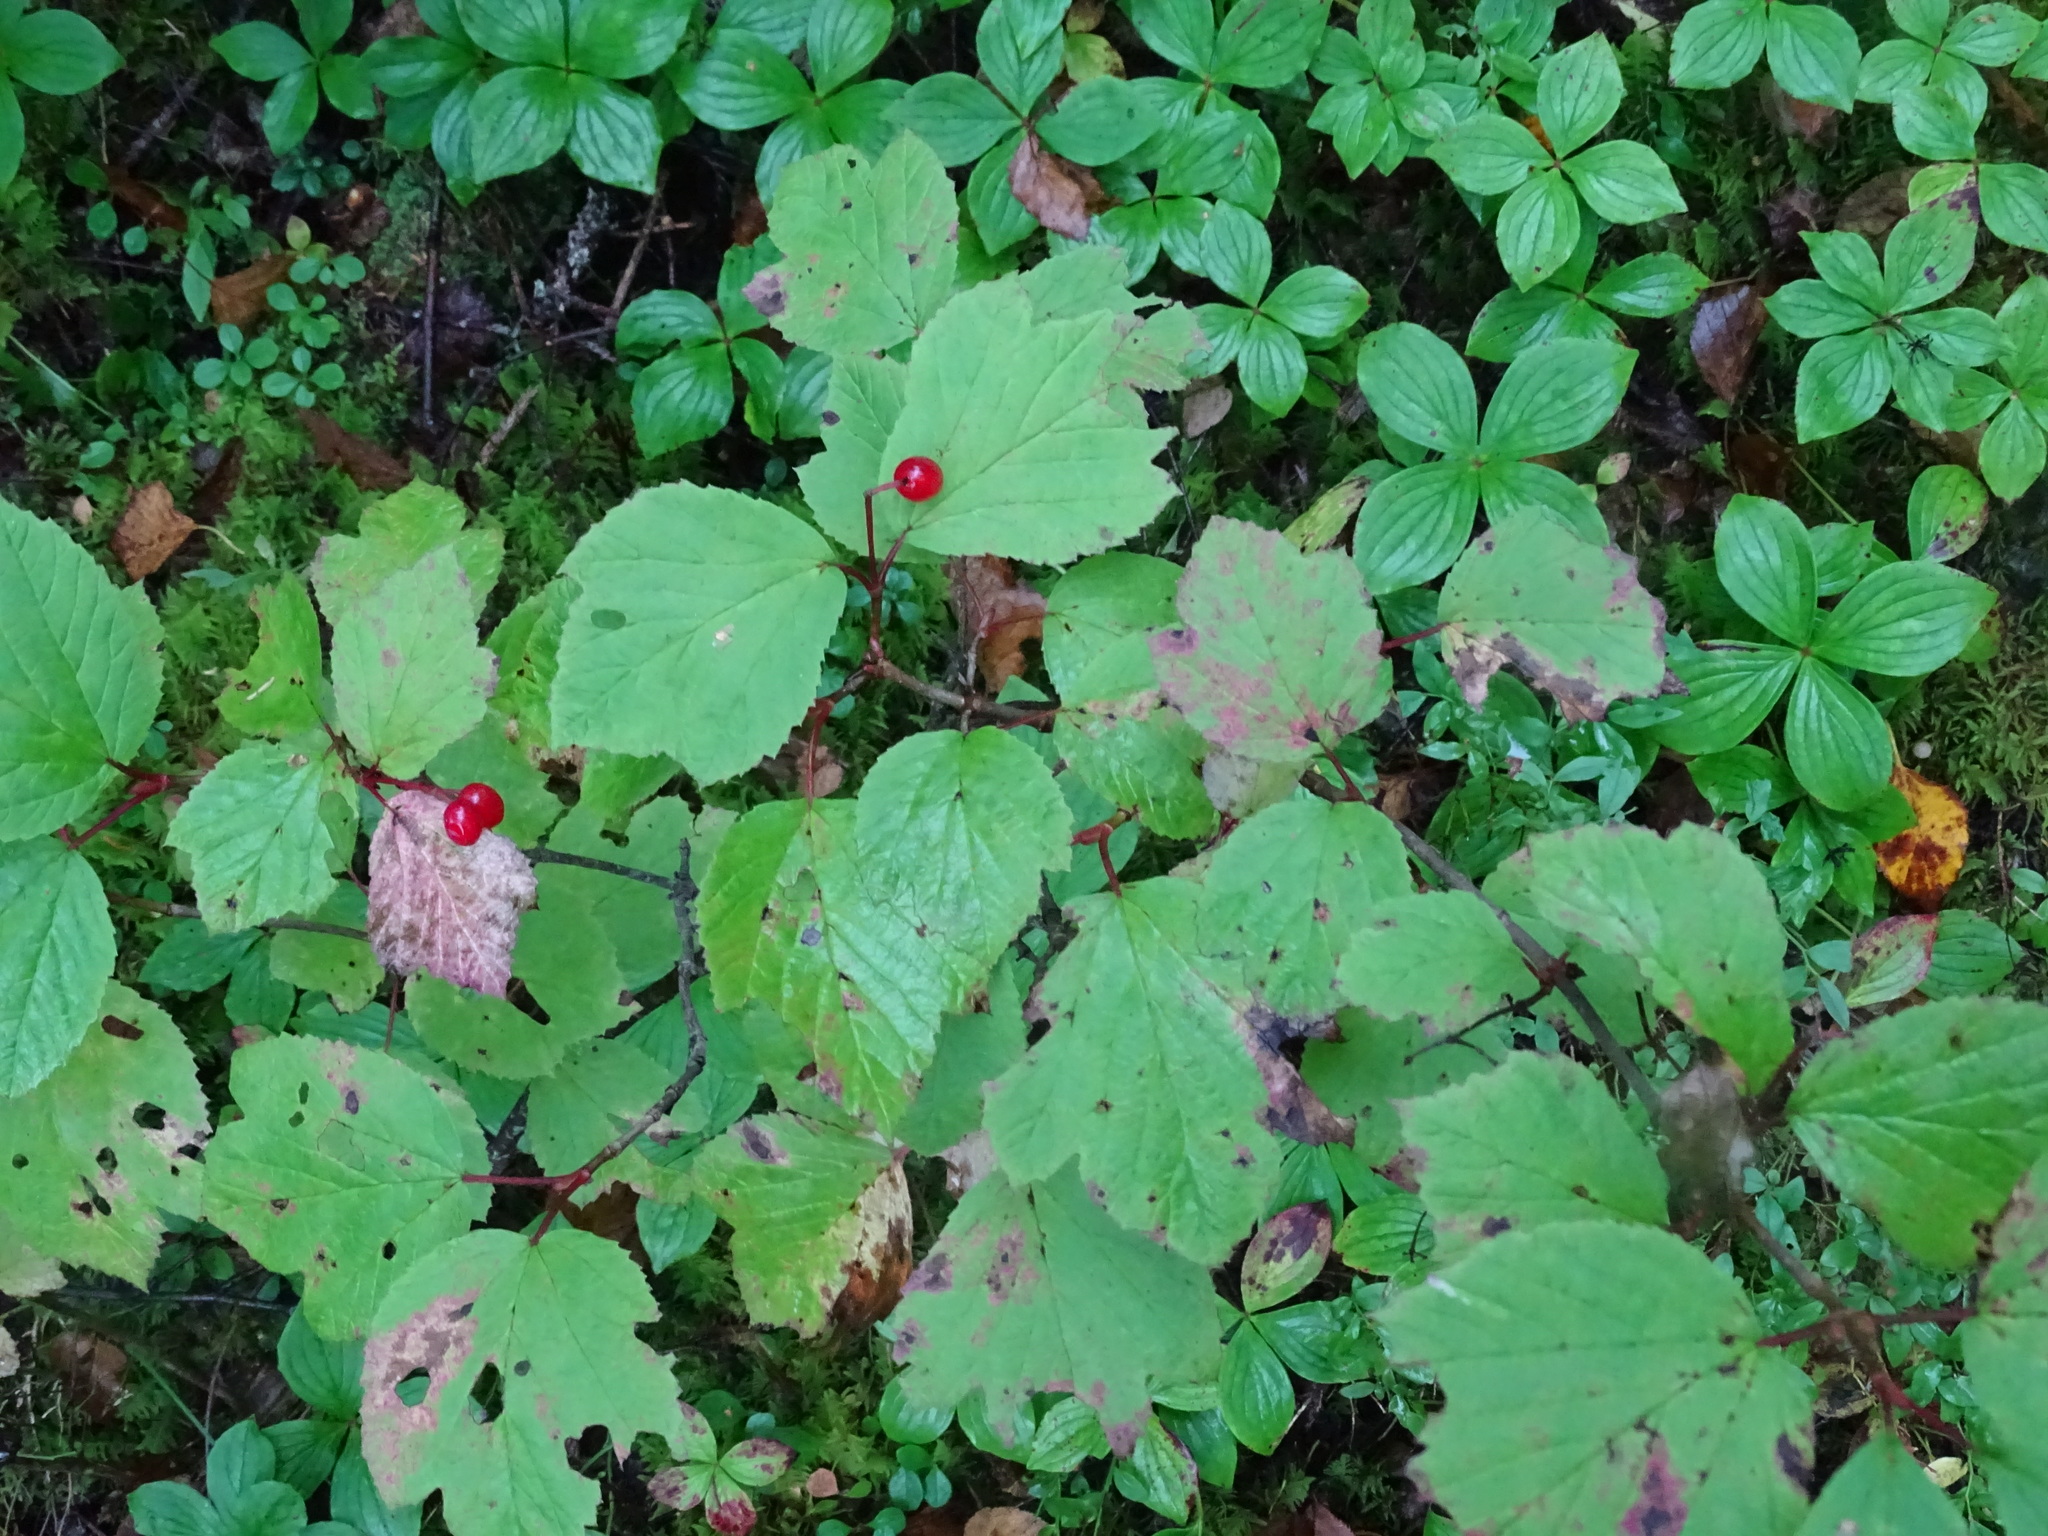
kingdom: Plantae
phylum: Tracheophyta
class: Magnoliopsida
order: Dipsacales
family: Viburnaceae
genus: Viburnum
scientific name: Viburnum edule
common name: Mooseberry
